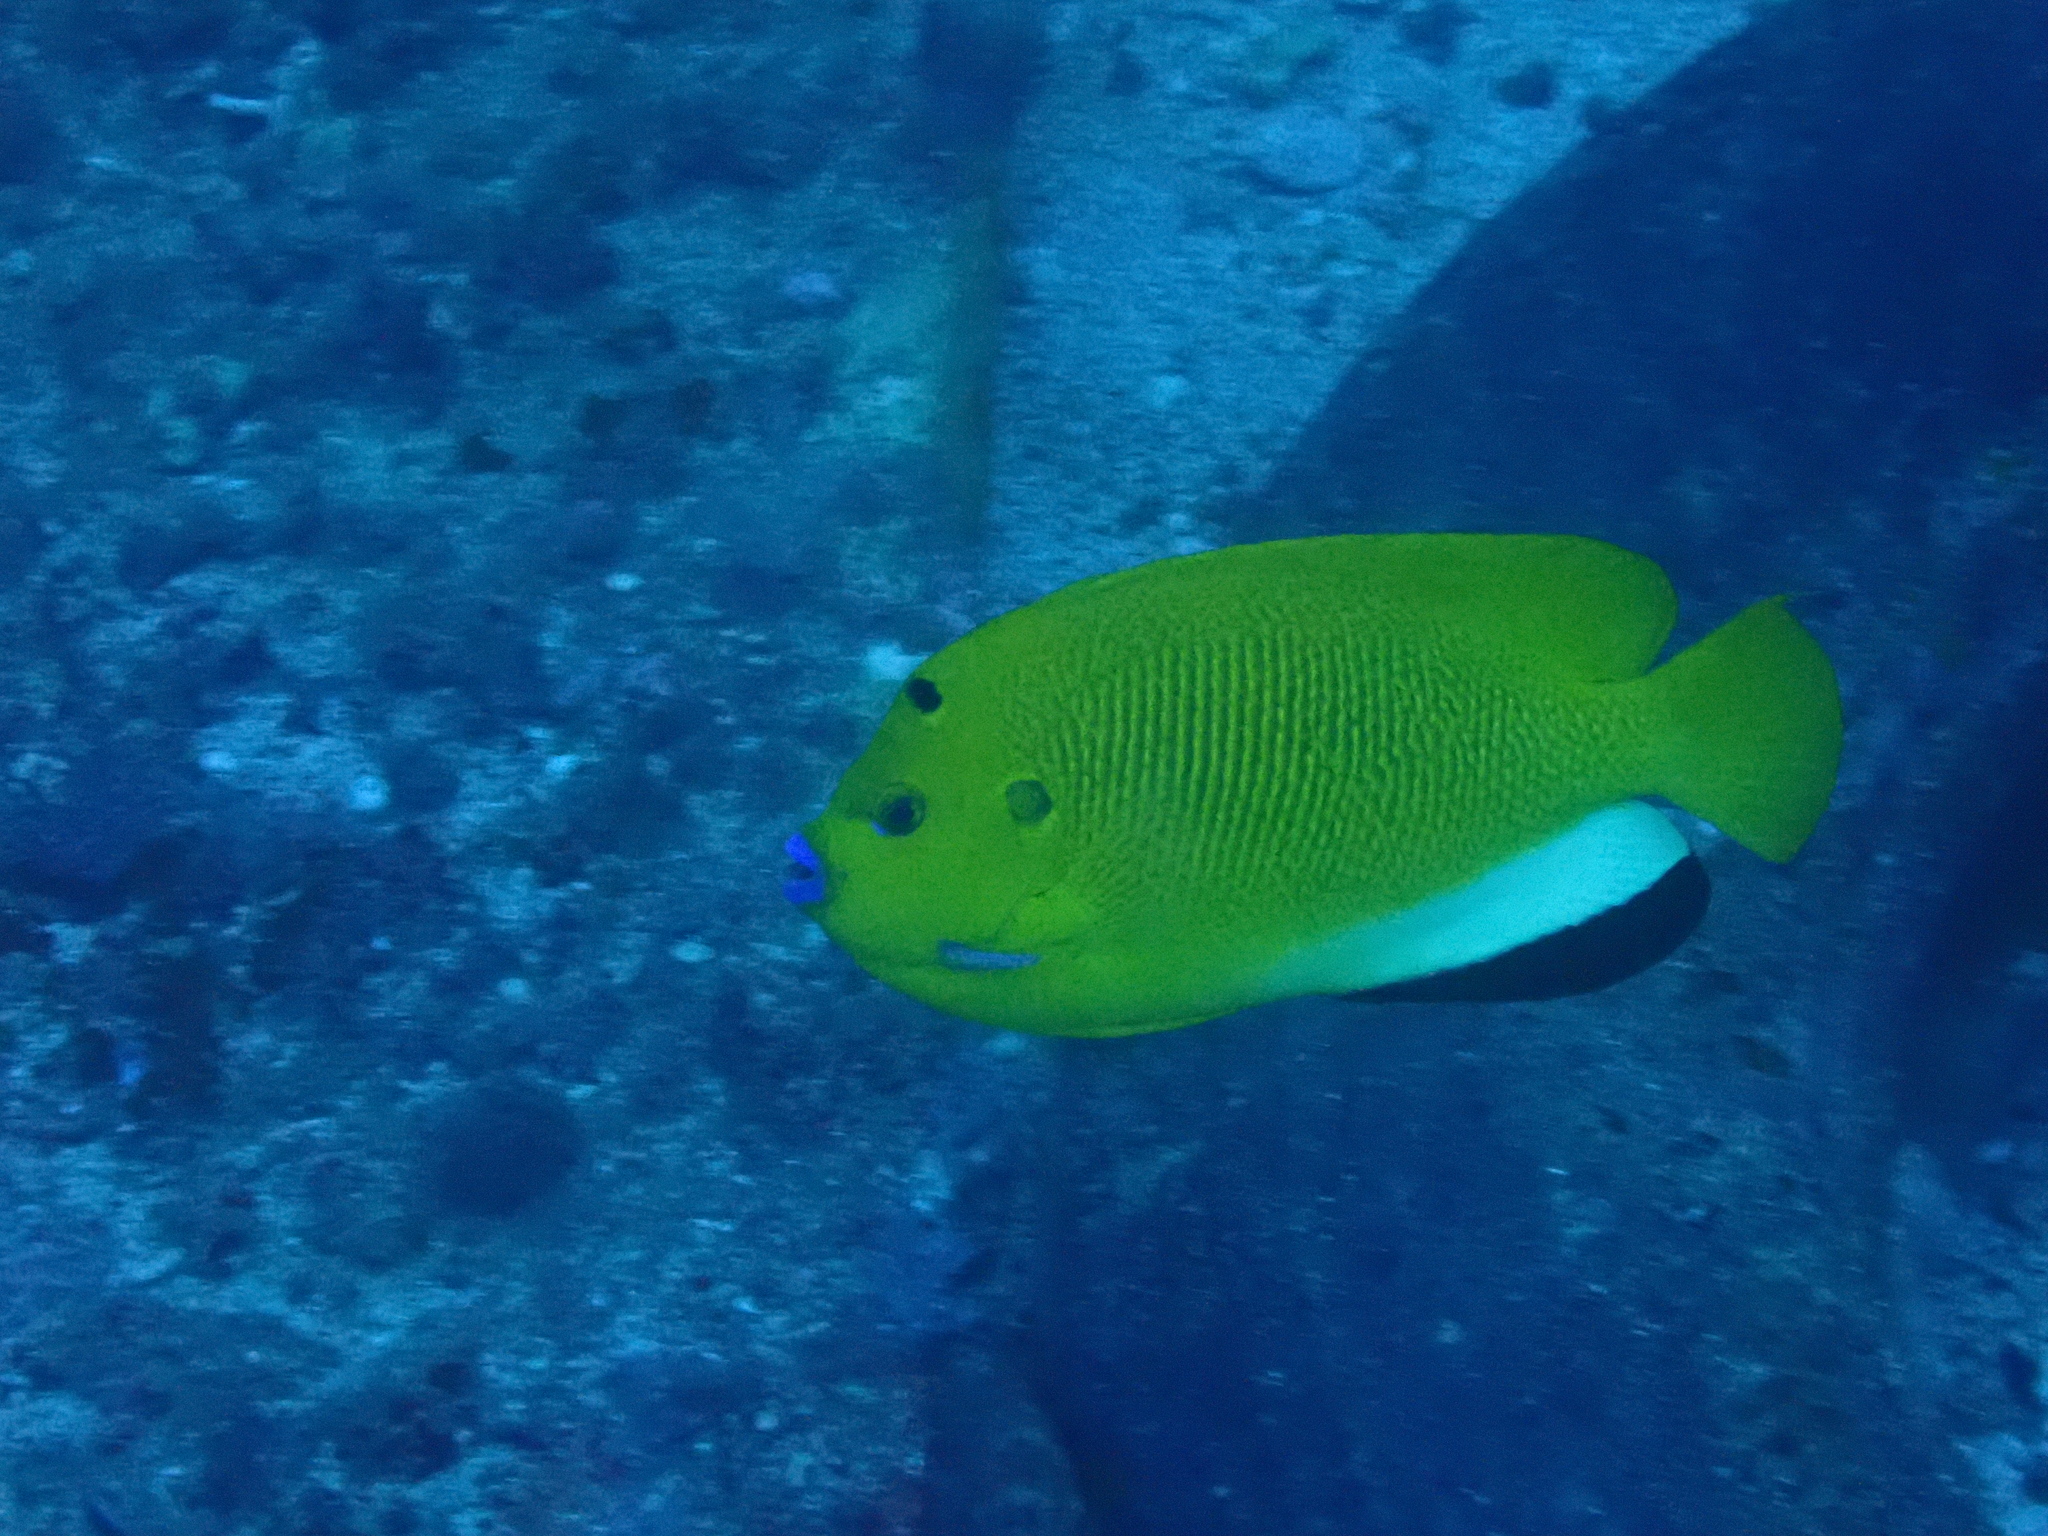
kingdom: Animalia
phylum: Chordata
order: Perciformes
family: Pomacanthidae
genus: Apolemichthys
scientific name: Apolemichthys trimaculatus
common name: Threespot angelfish
